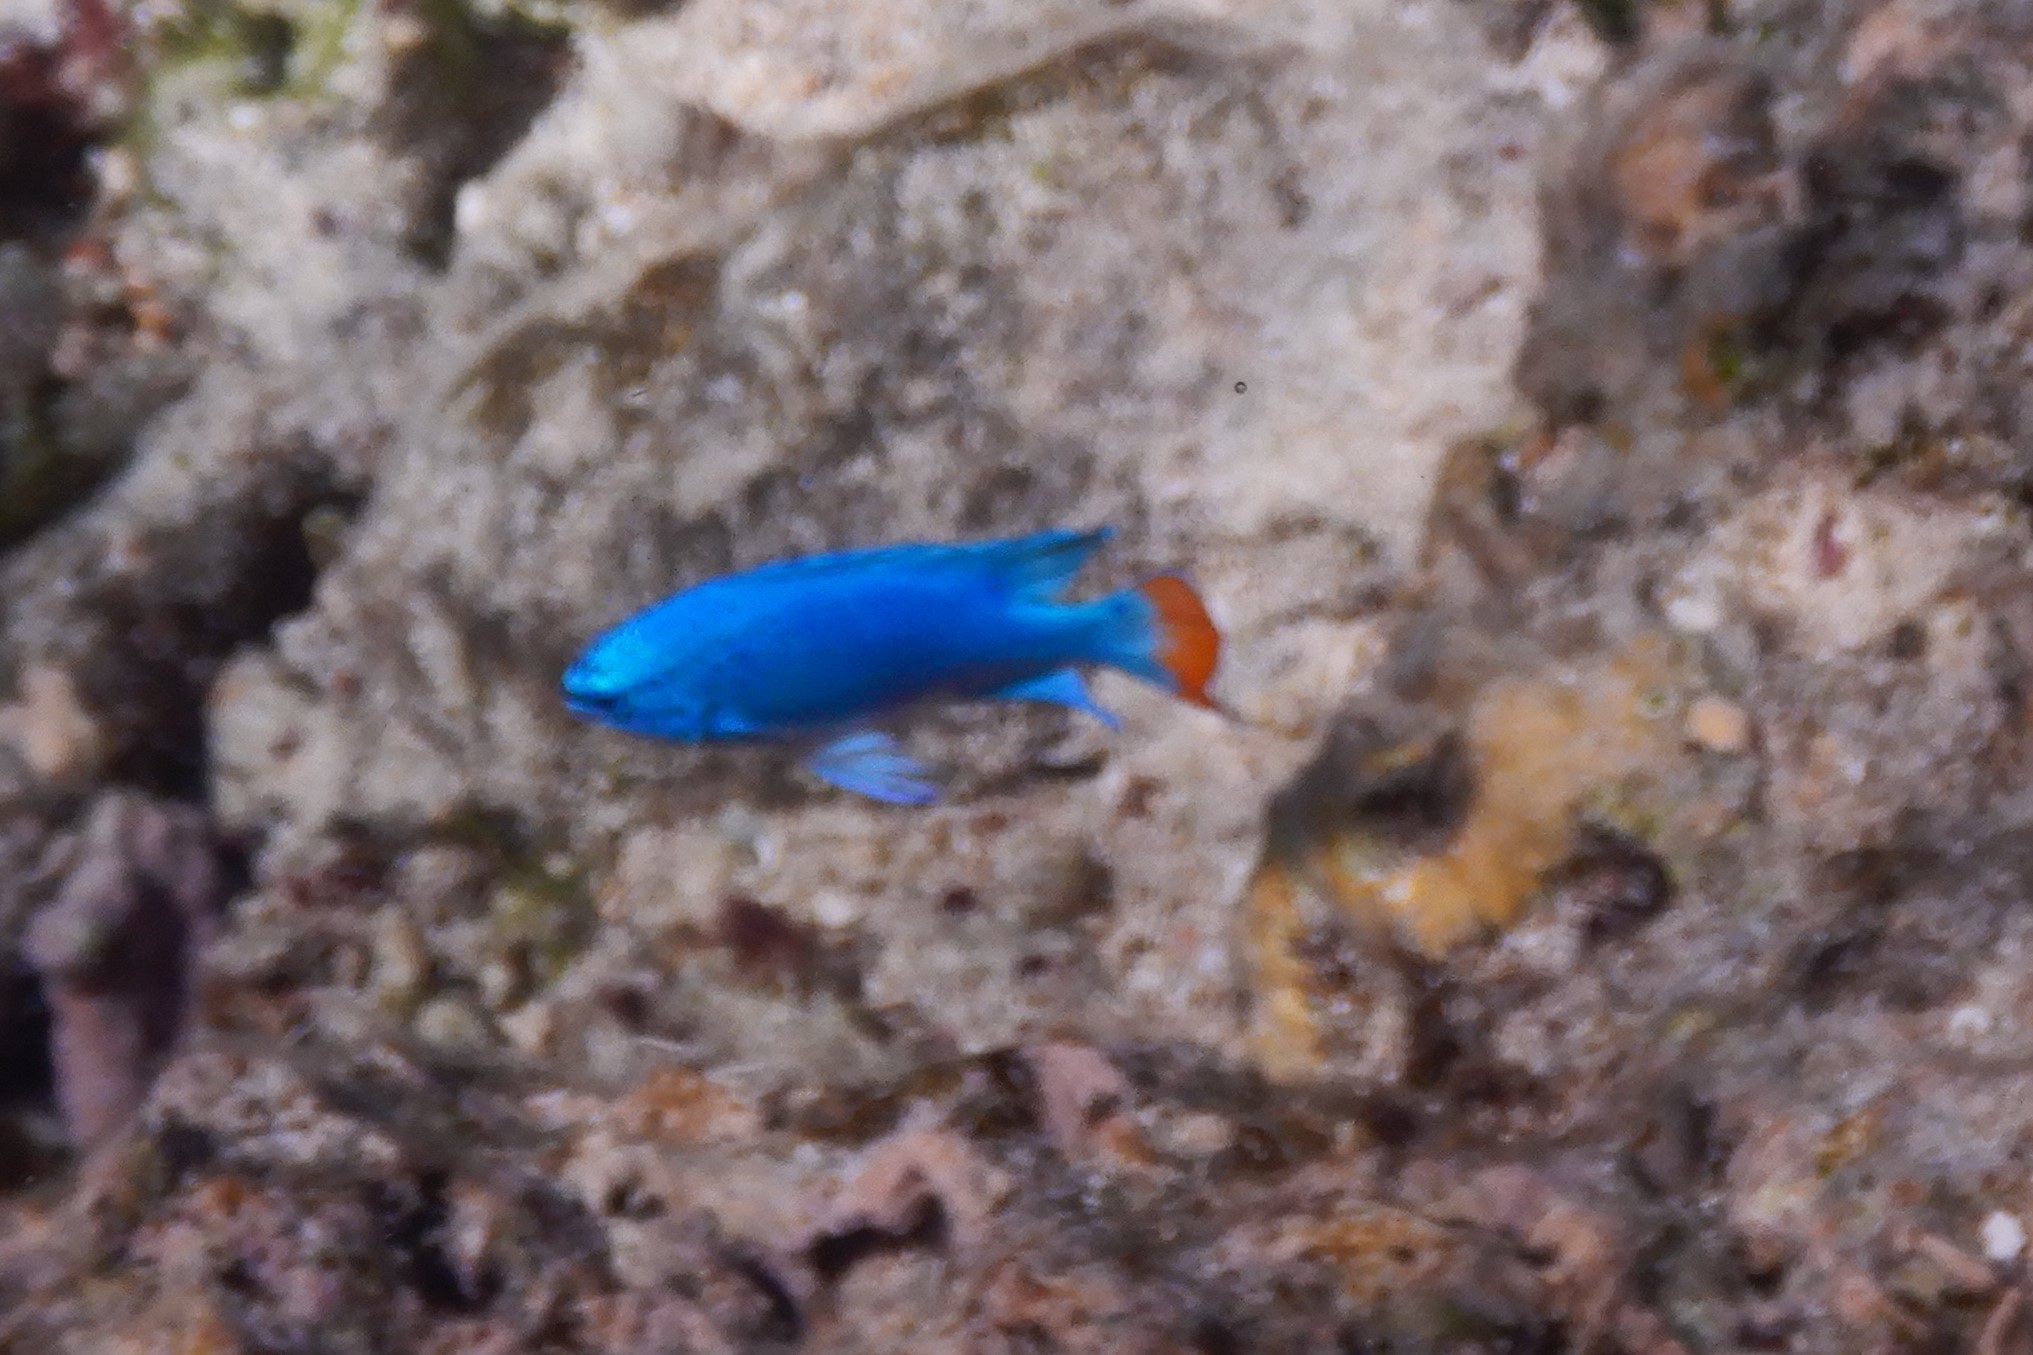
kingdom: Animalia
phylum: Chordata
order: Perciformes
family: Pomacentridae
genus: Chrysiptera
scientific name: Chrysiptera cyanea
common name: Blue devil
